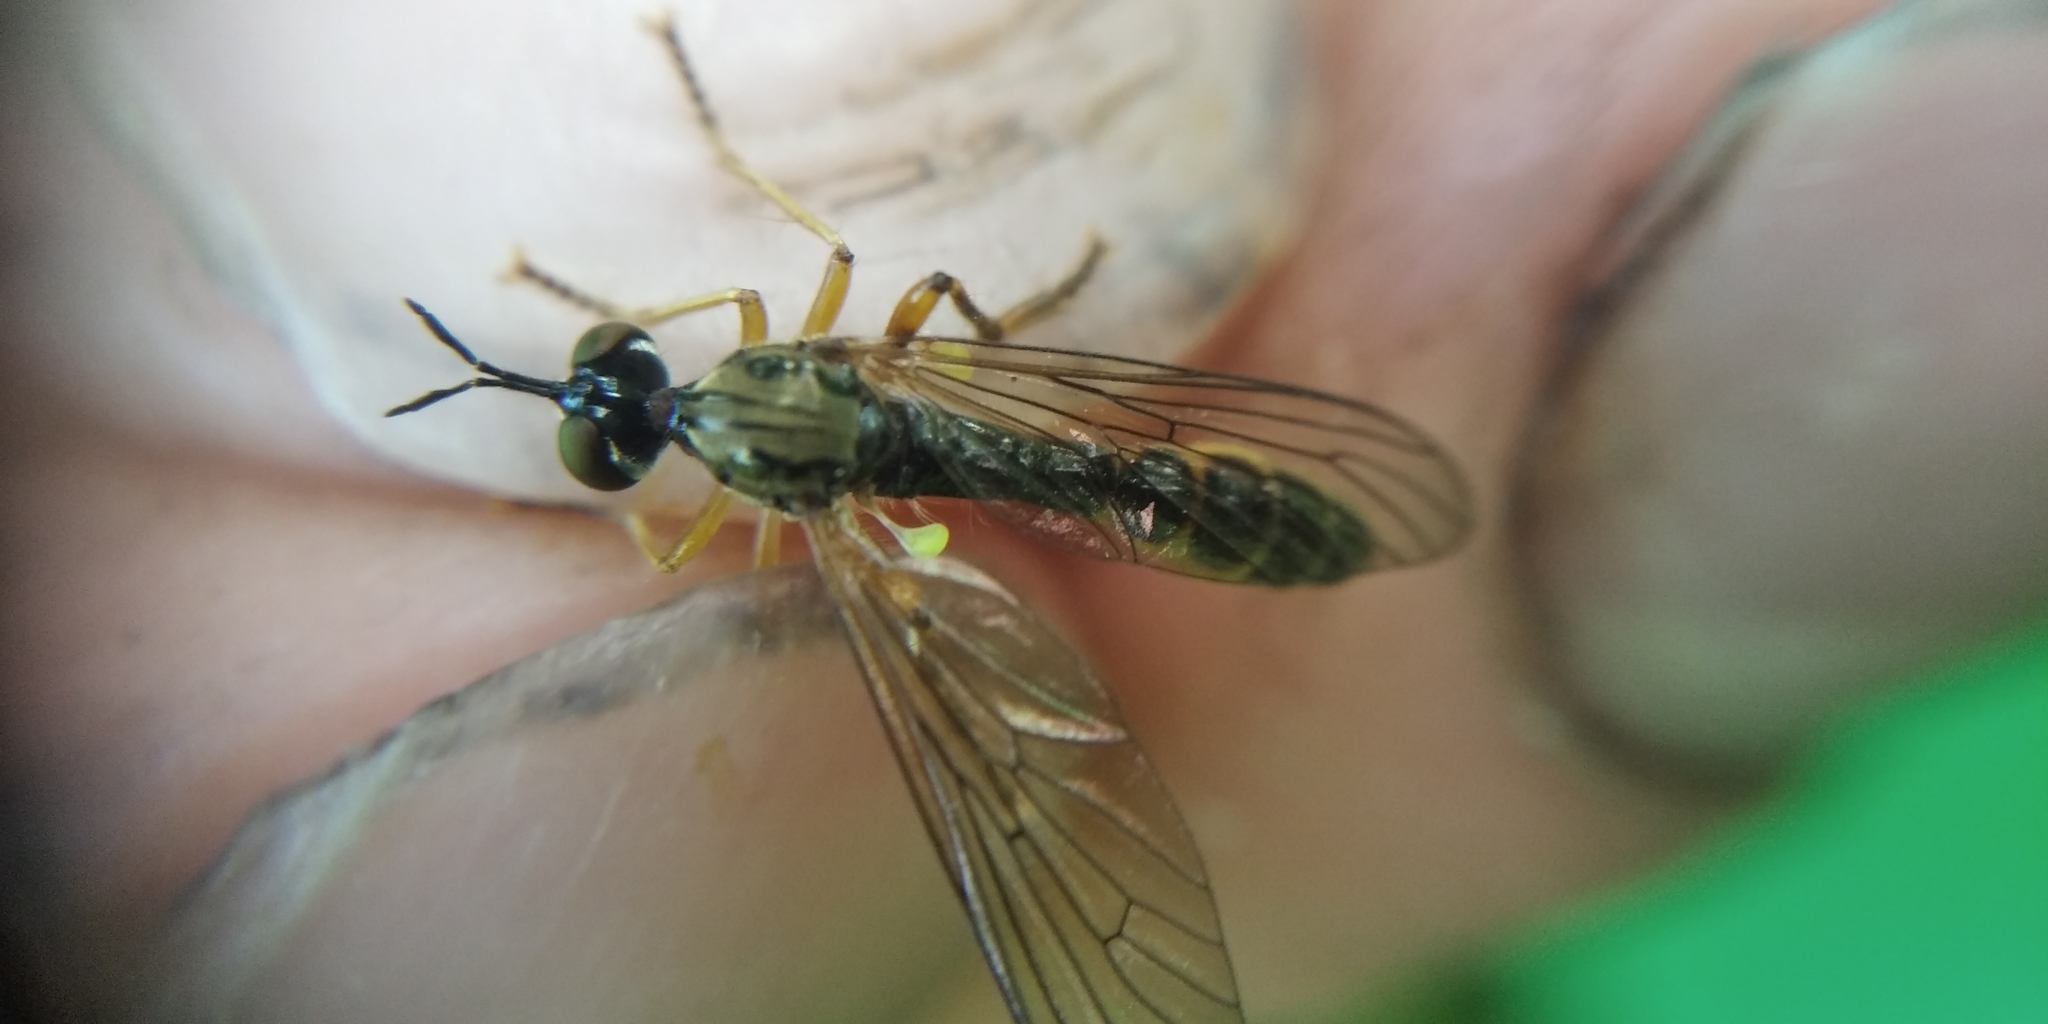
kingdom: Animalia
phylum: Arthropoda
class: Insecta
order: Diptera
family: Asilidae
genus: Dioctria
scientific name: Dioctria linearis
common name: Small yellow-legged robberfly
